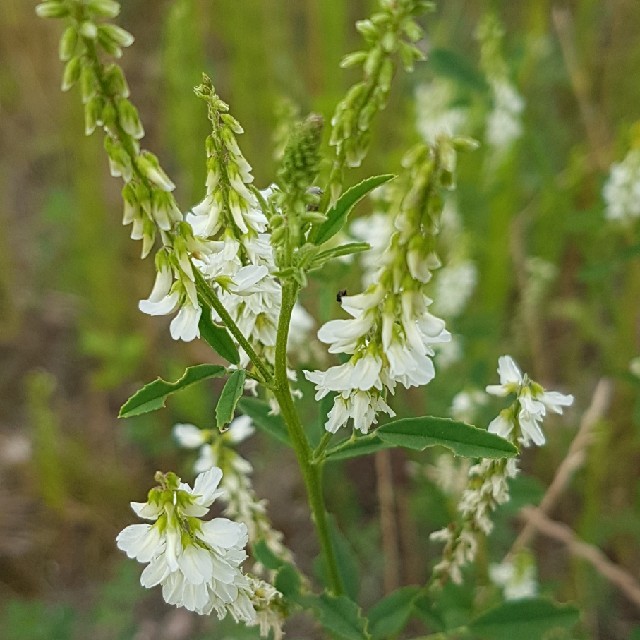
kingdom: Plantae
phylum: Tracheophyta
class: Magnoliopsida
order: Fabales
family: Fabaceae
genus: Melilotus
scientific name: Melilotus albus
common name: White melilot
